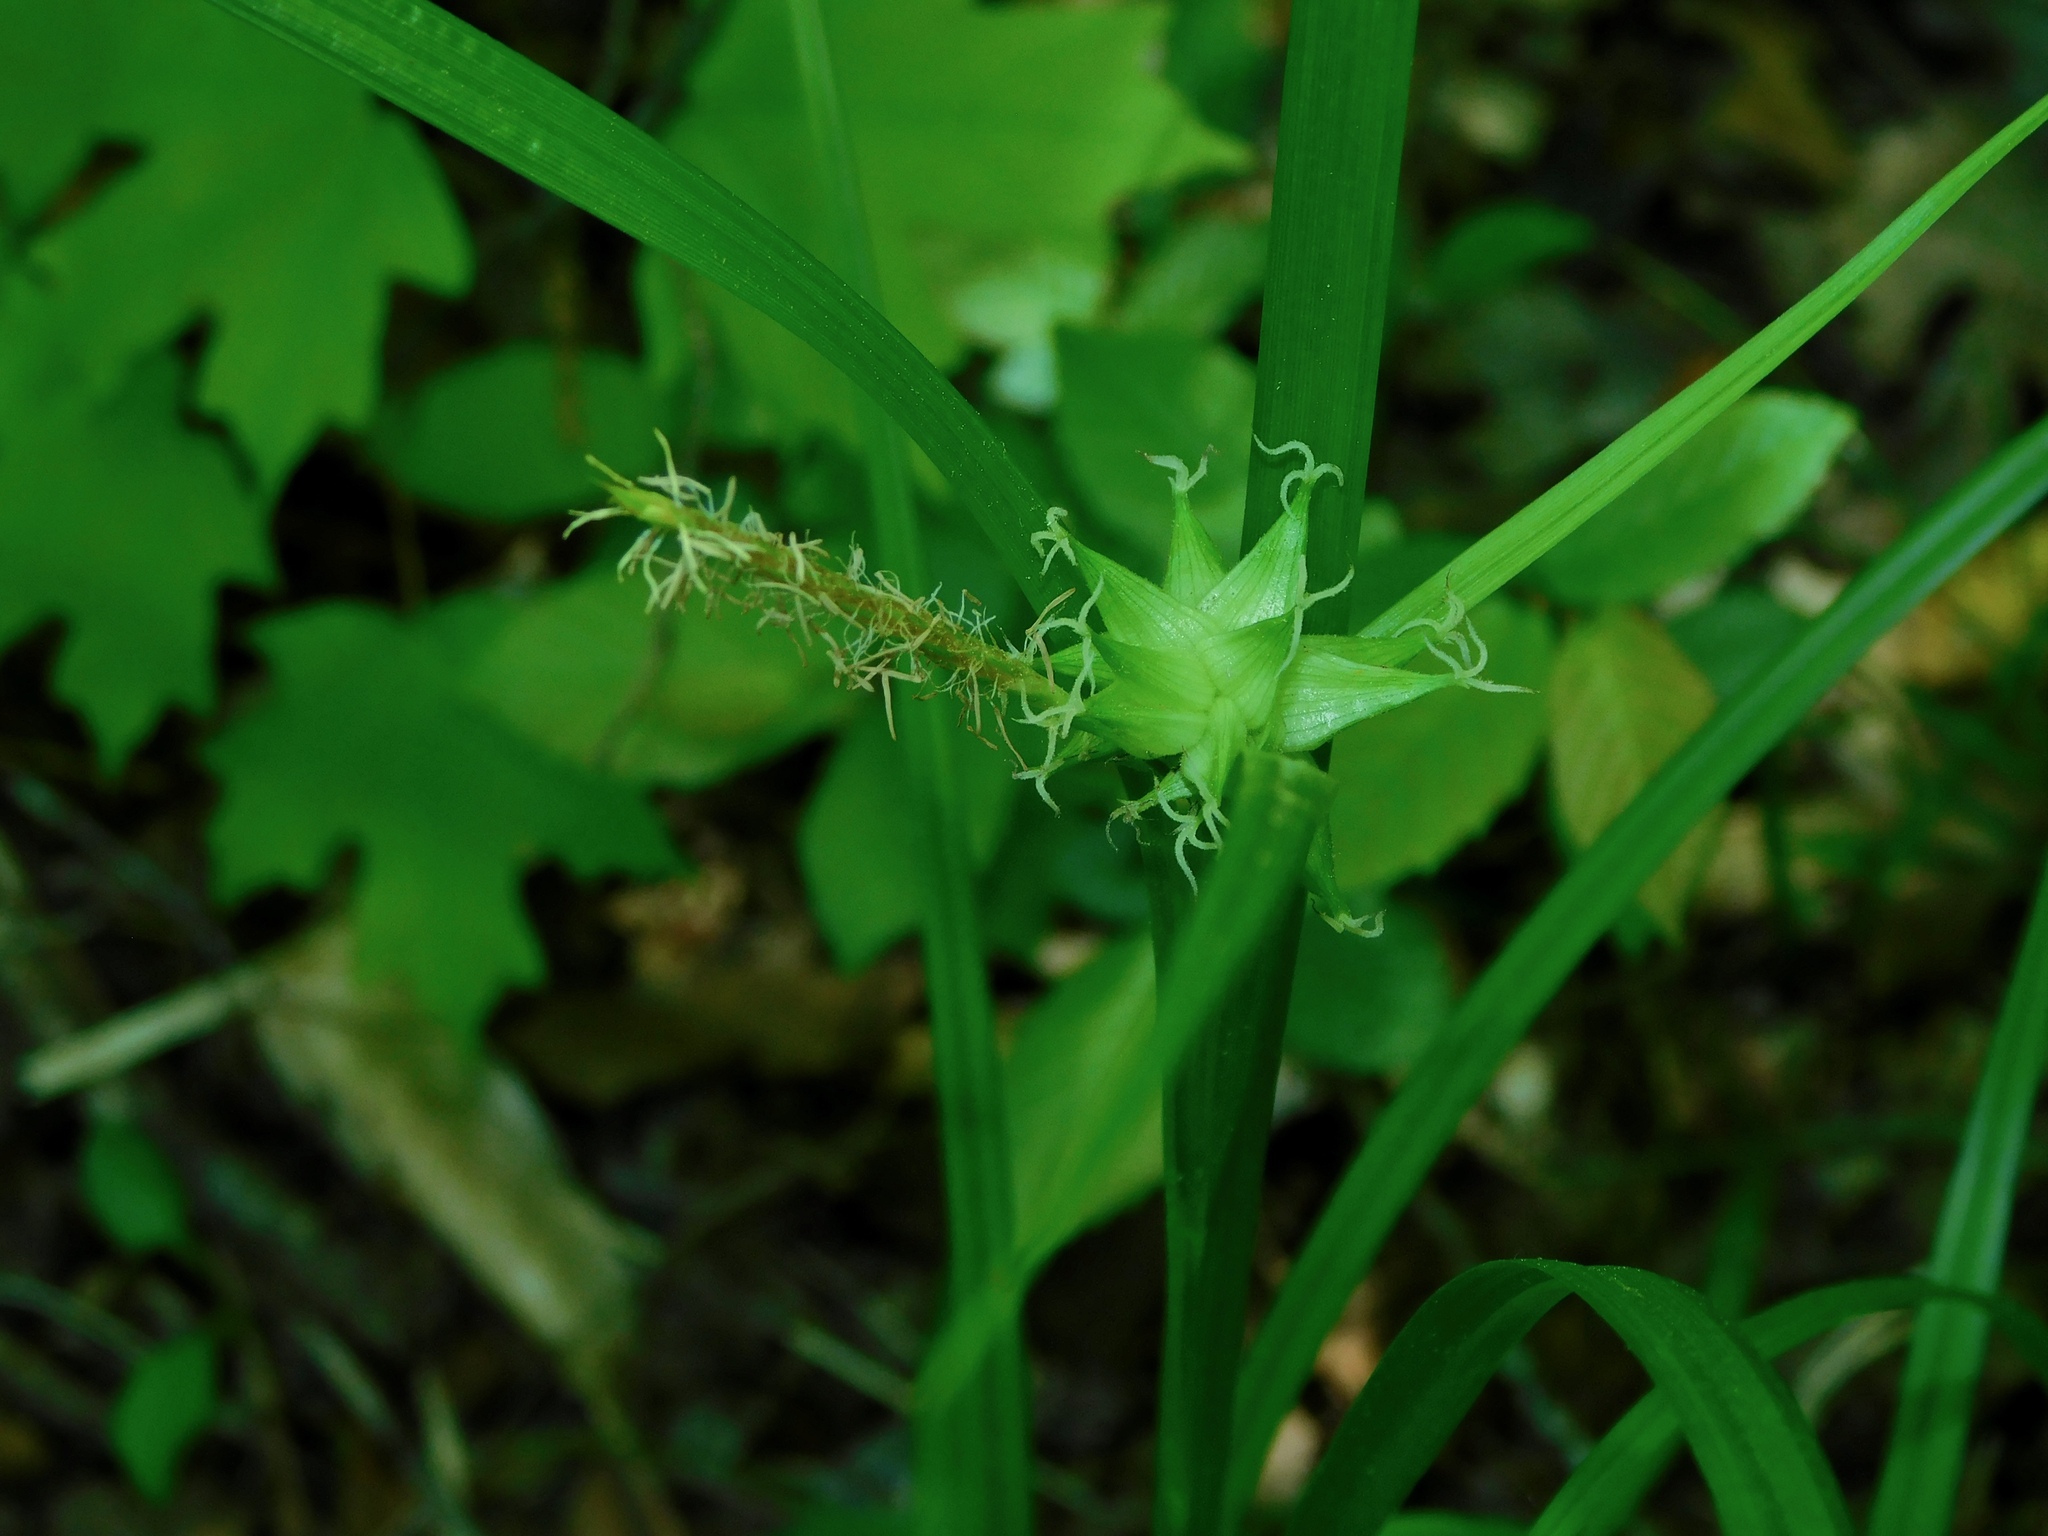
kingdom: Plantae
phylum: Tracheophyta
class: Liliopsida
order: Poales
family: Cyperaceae
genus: Carex
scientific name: Carex intumescens
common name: Greater bladder sedge
